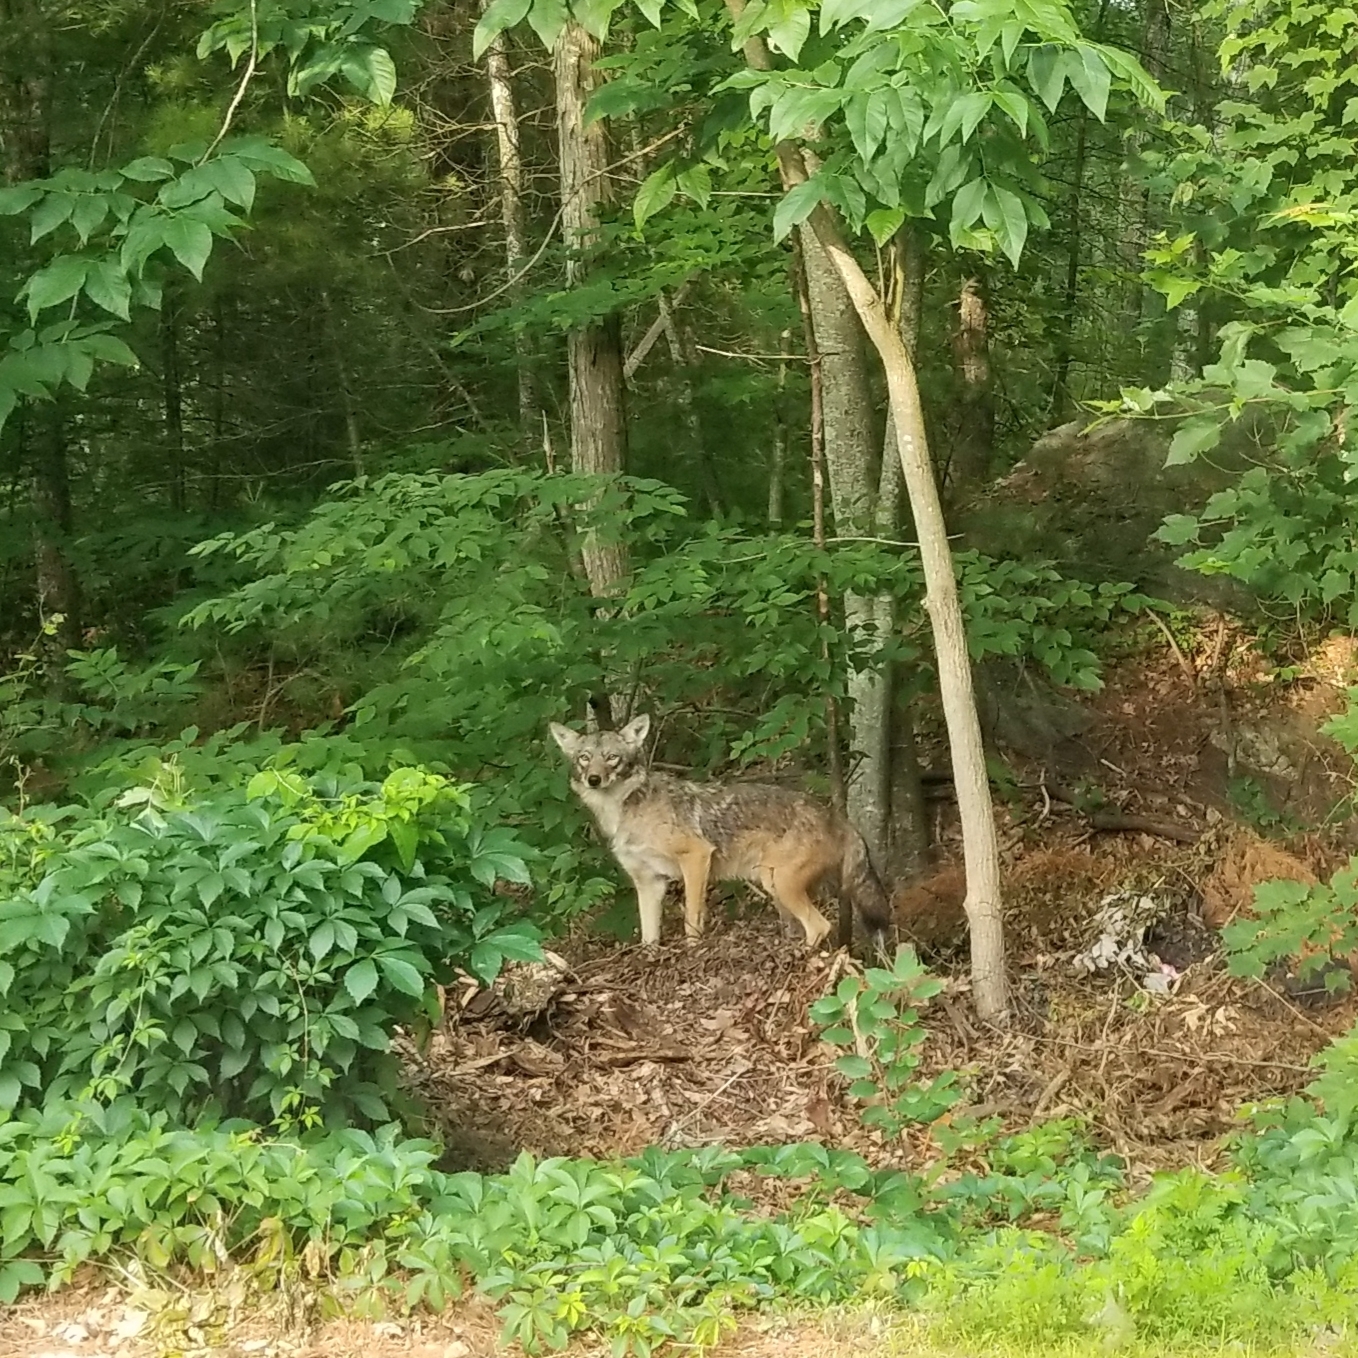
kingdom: Animalia
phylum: Chordata
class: Mammalia
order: Carnivora
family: Canidae
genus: Canis
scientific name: Canis latrans
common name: Coyote
